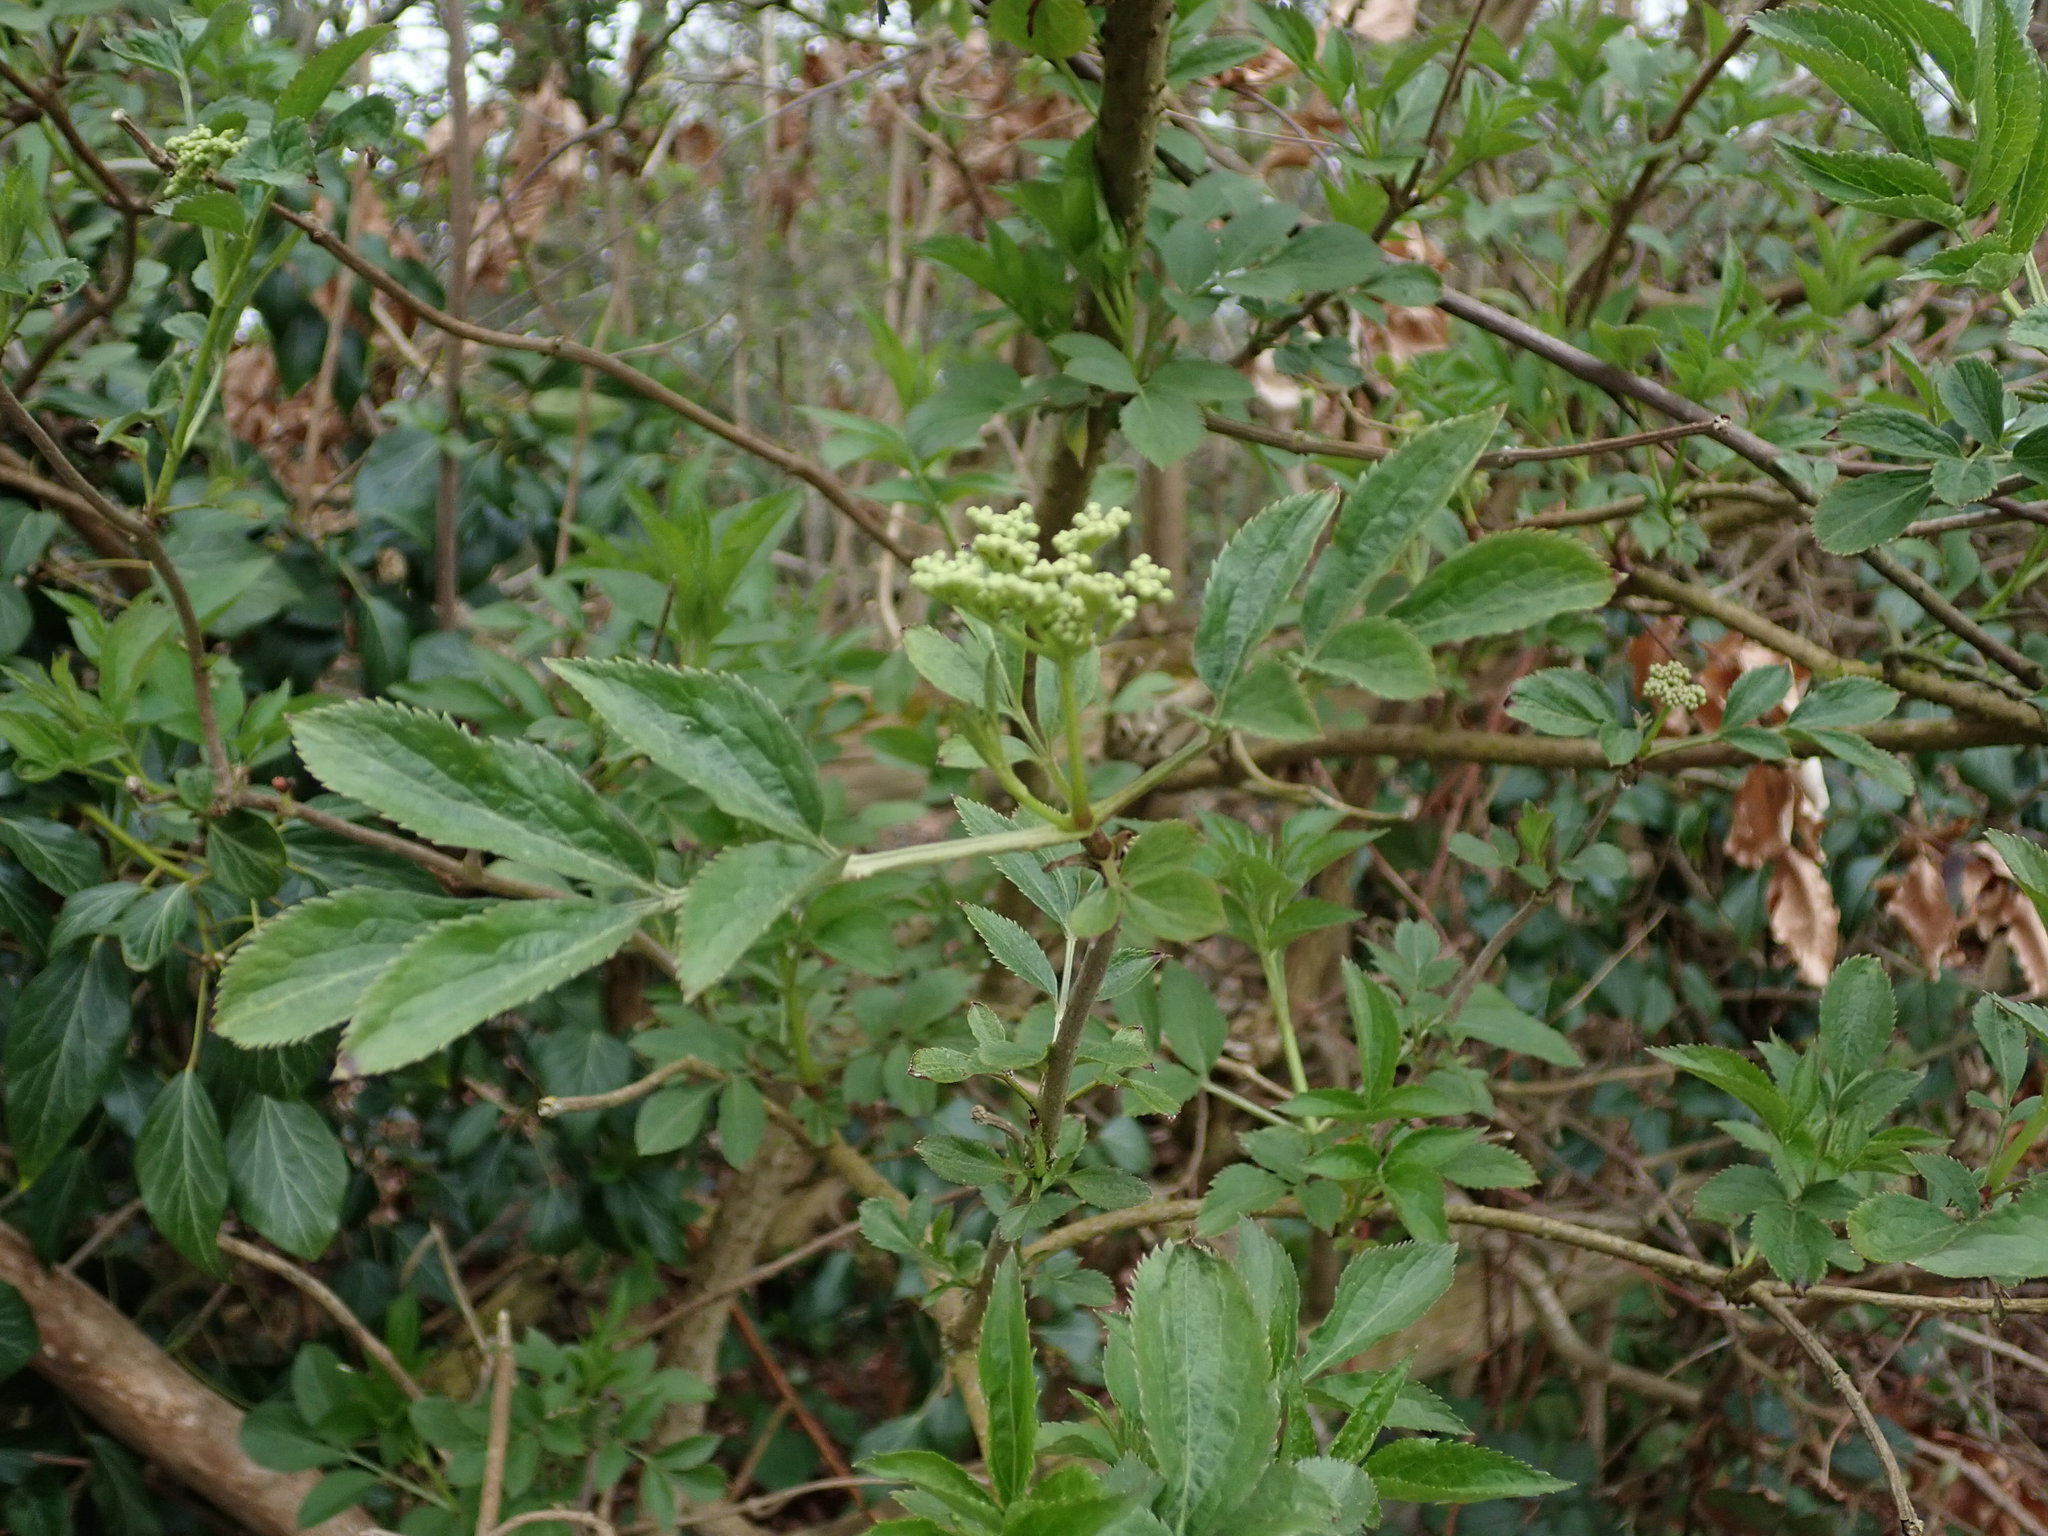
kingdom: Plantae
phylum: Tracheophyta
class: Magnoliopsida
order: Dipsacales
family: Viburnaceae
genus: Sambucus
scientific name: Sambucus nigra
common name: Elder
